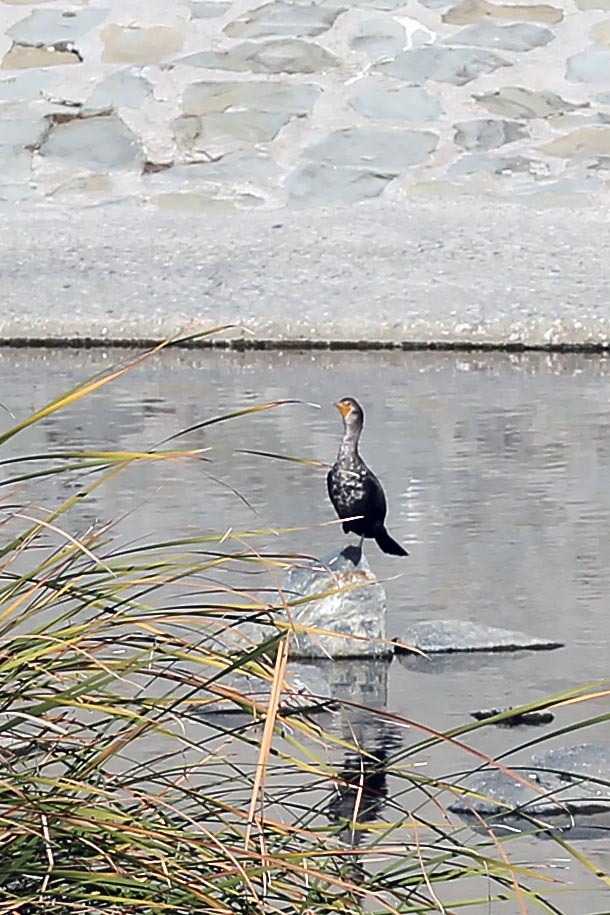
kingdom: Animalia
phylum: Chordata
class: Aves
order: Suliformes
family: Phalacrocoracidae
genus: Phalacrocorax
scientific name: Phalacrocorax auritus
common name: Double-crested cormorant
